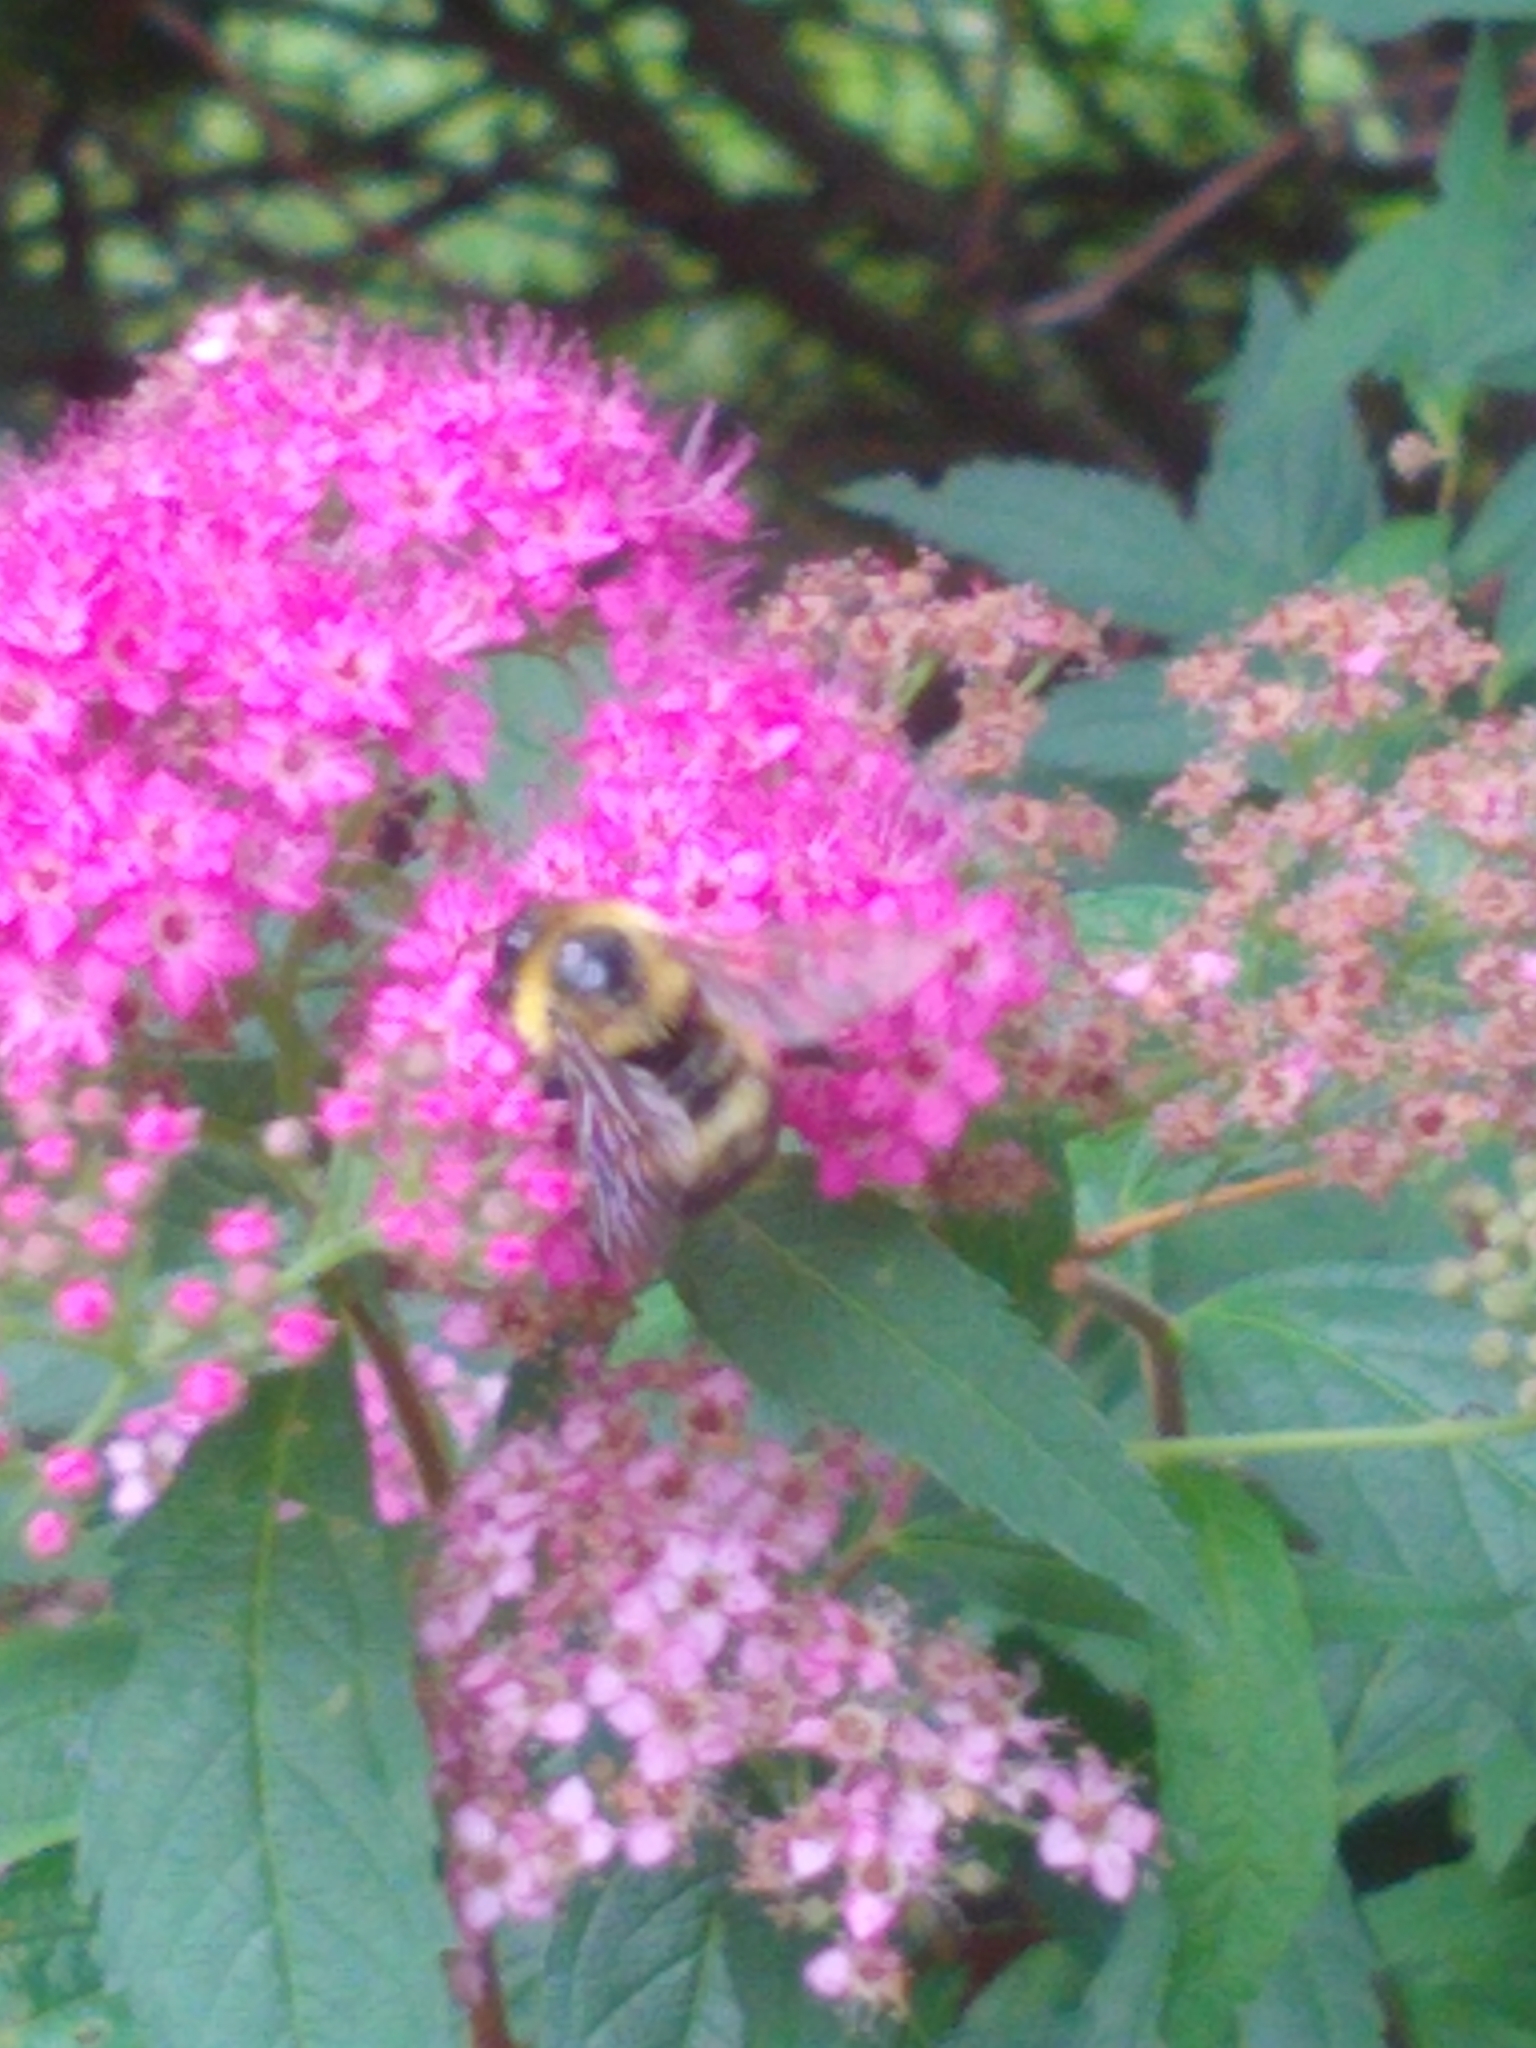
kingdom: Animalia
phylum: Arthropoda
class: Insecta
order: Hymenoptera
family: Apidae
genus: Bombus
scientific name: Bombus perplexus
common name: Confusing bumble bee
